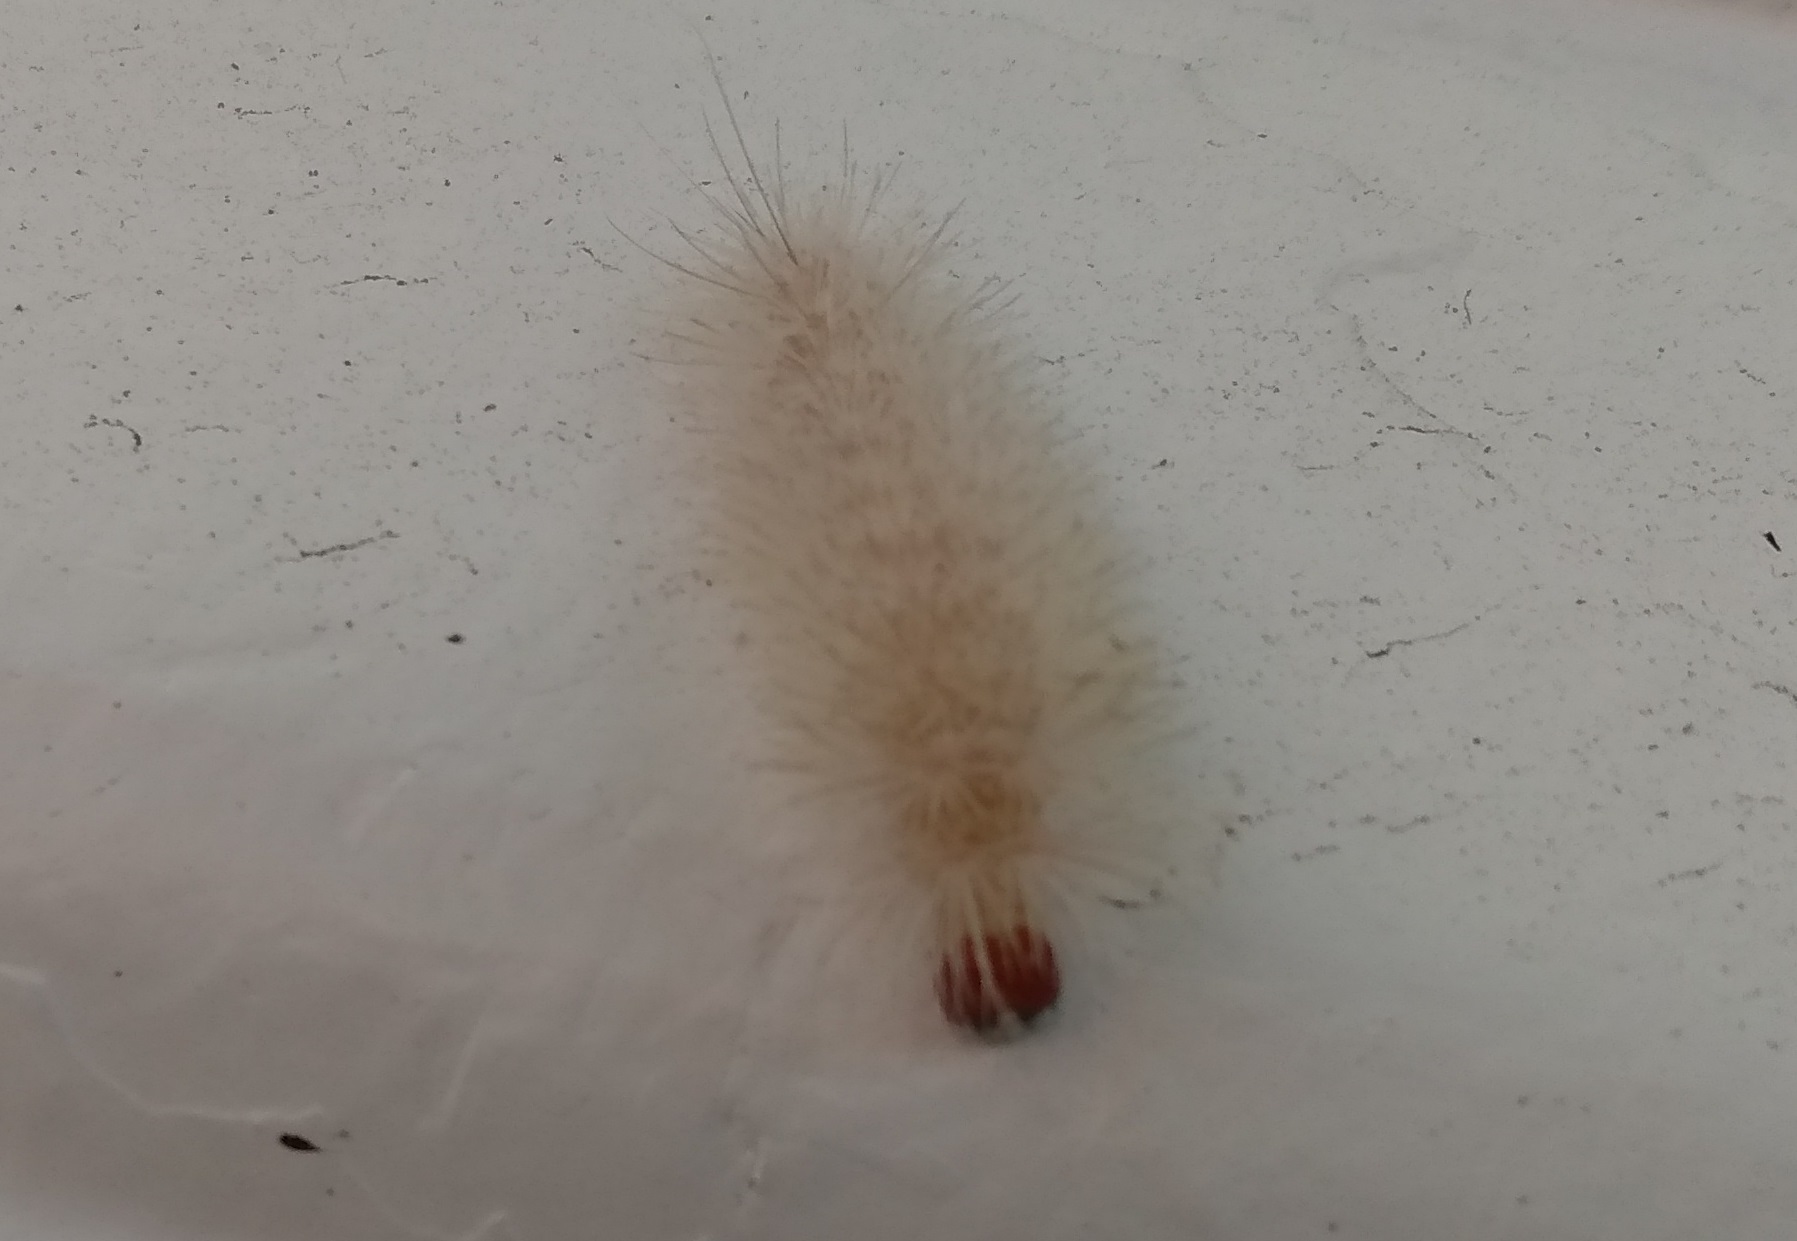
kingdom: Animalia
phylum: Arthropoda
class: Insecta
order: Lepidoptera
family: Erebidae
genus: Lymire
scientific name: Lymire edwardsii
